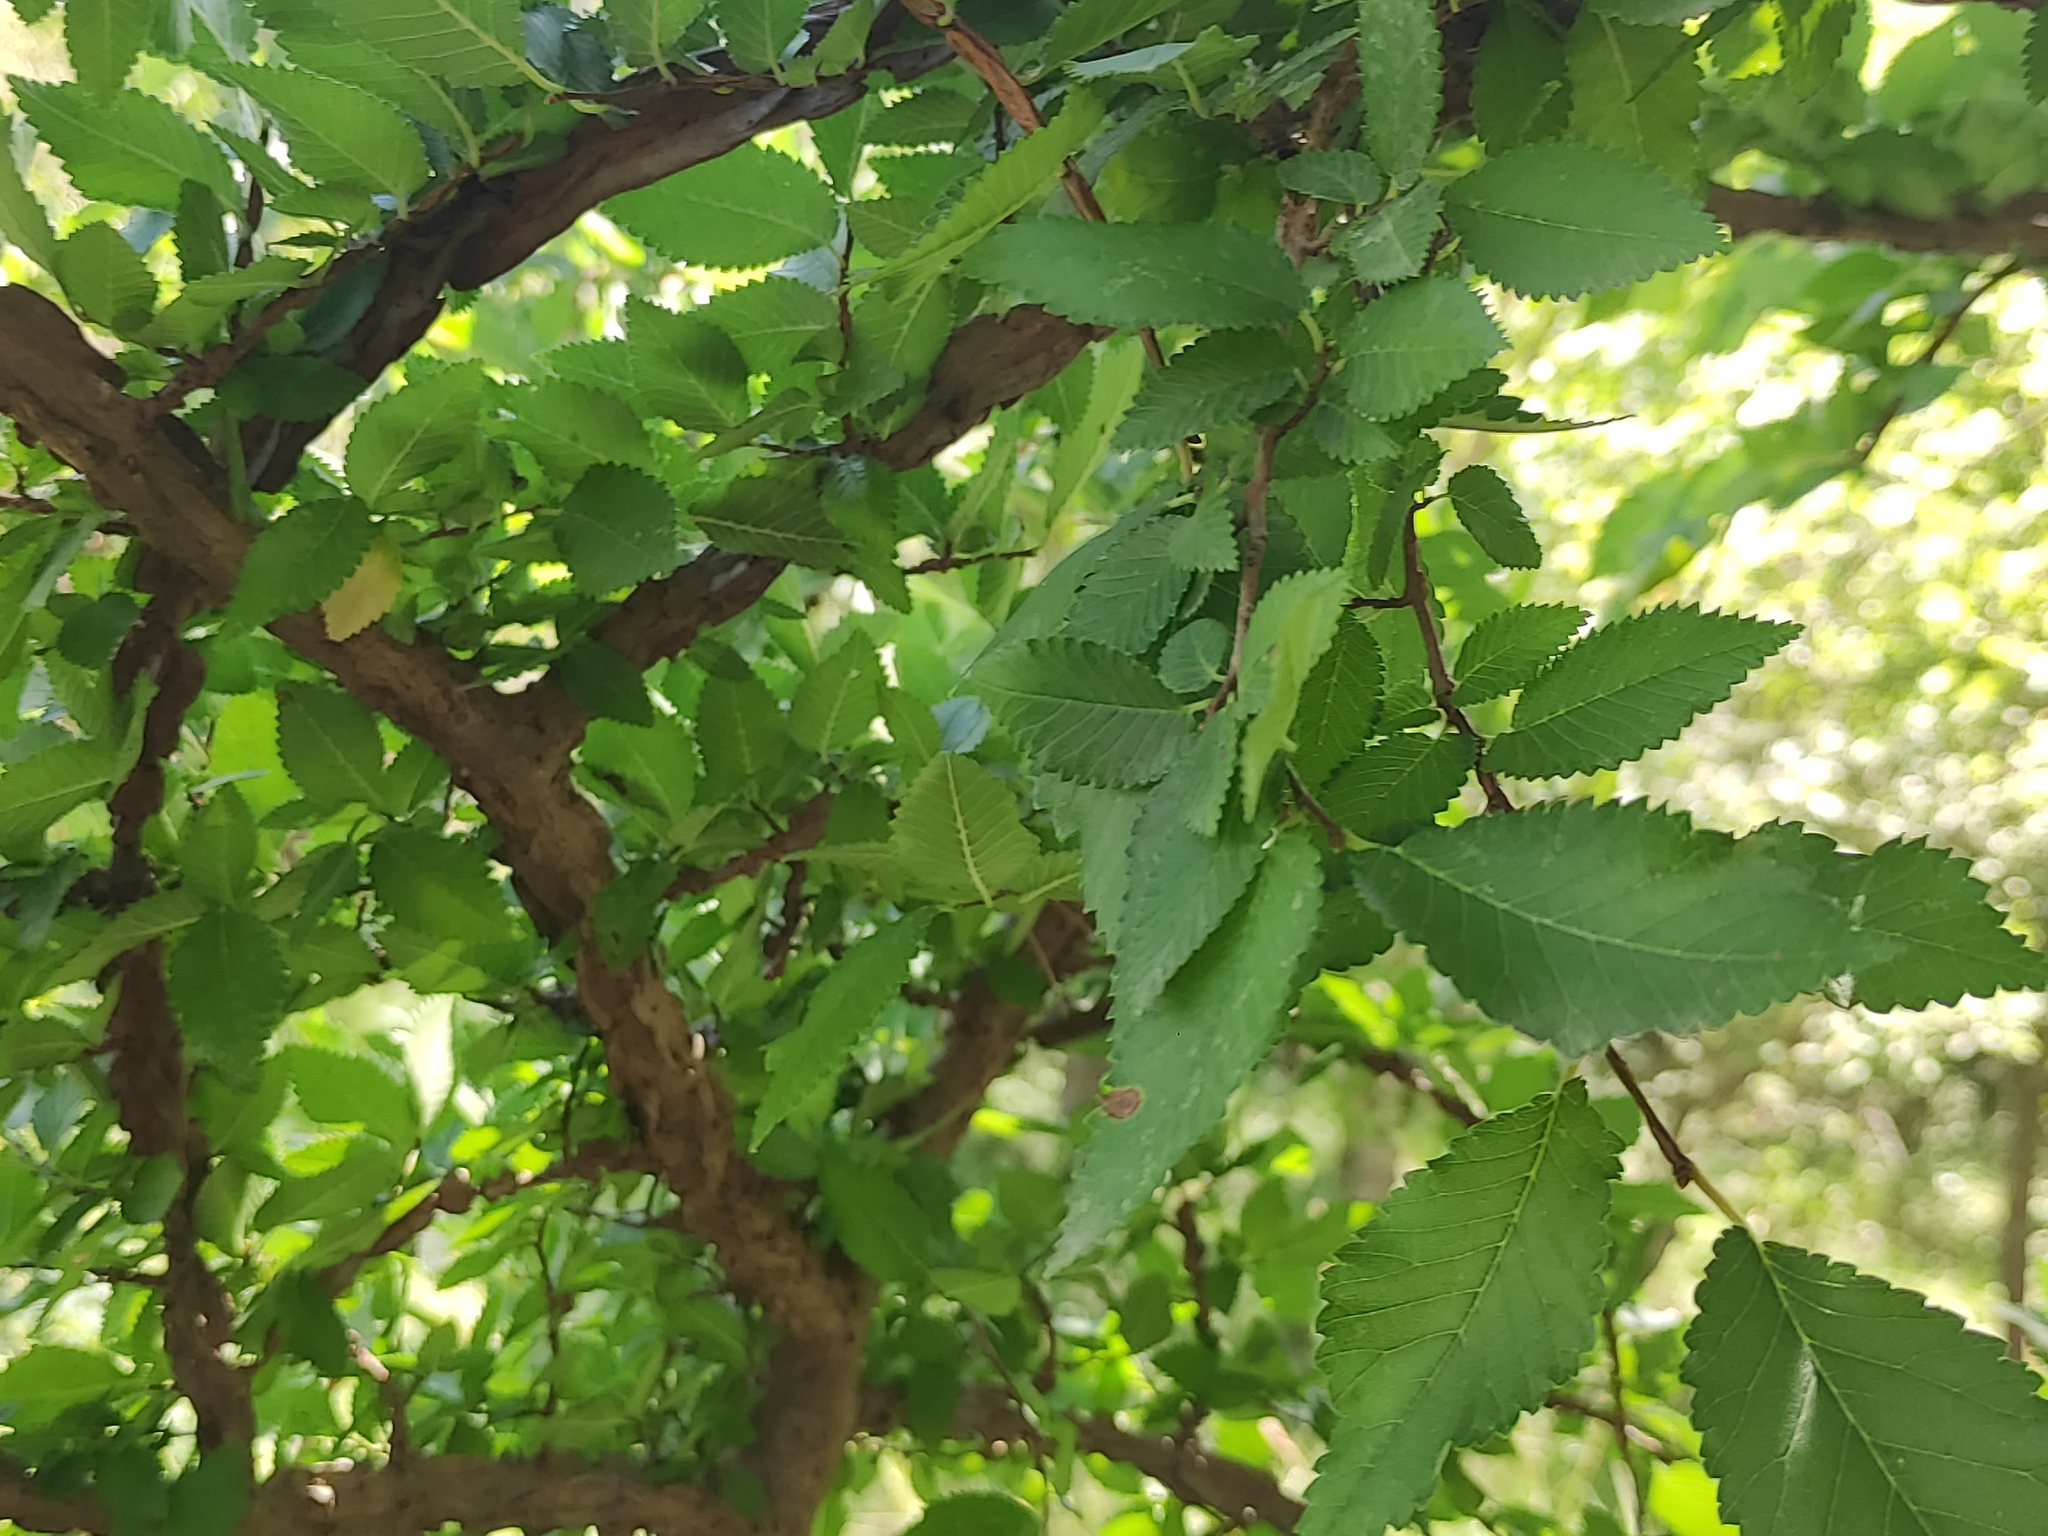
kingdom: Plantae
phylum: Tracheophyta
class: Magnoliopsida
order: Rosales
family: Ulmaceae
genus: Ulmus
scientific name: Ulmus minor
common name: Small-leaved elm
